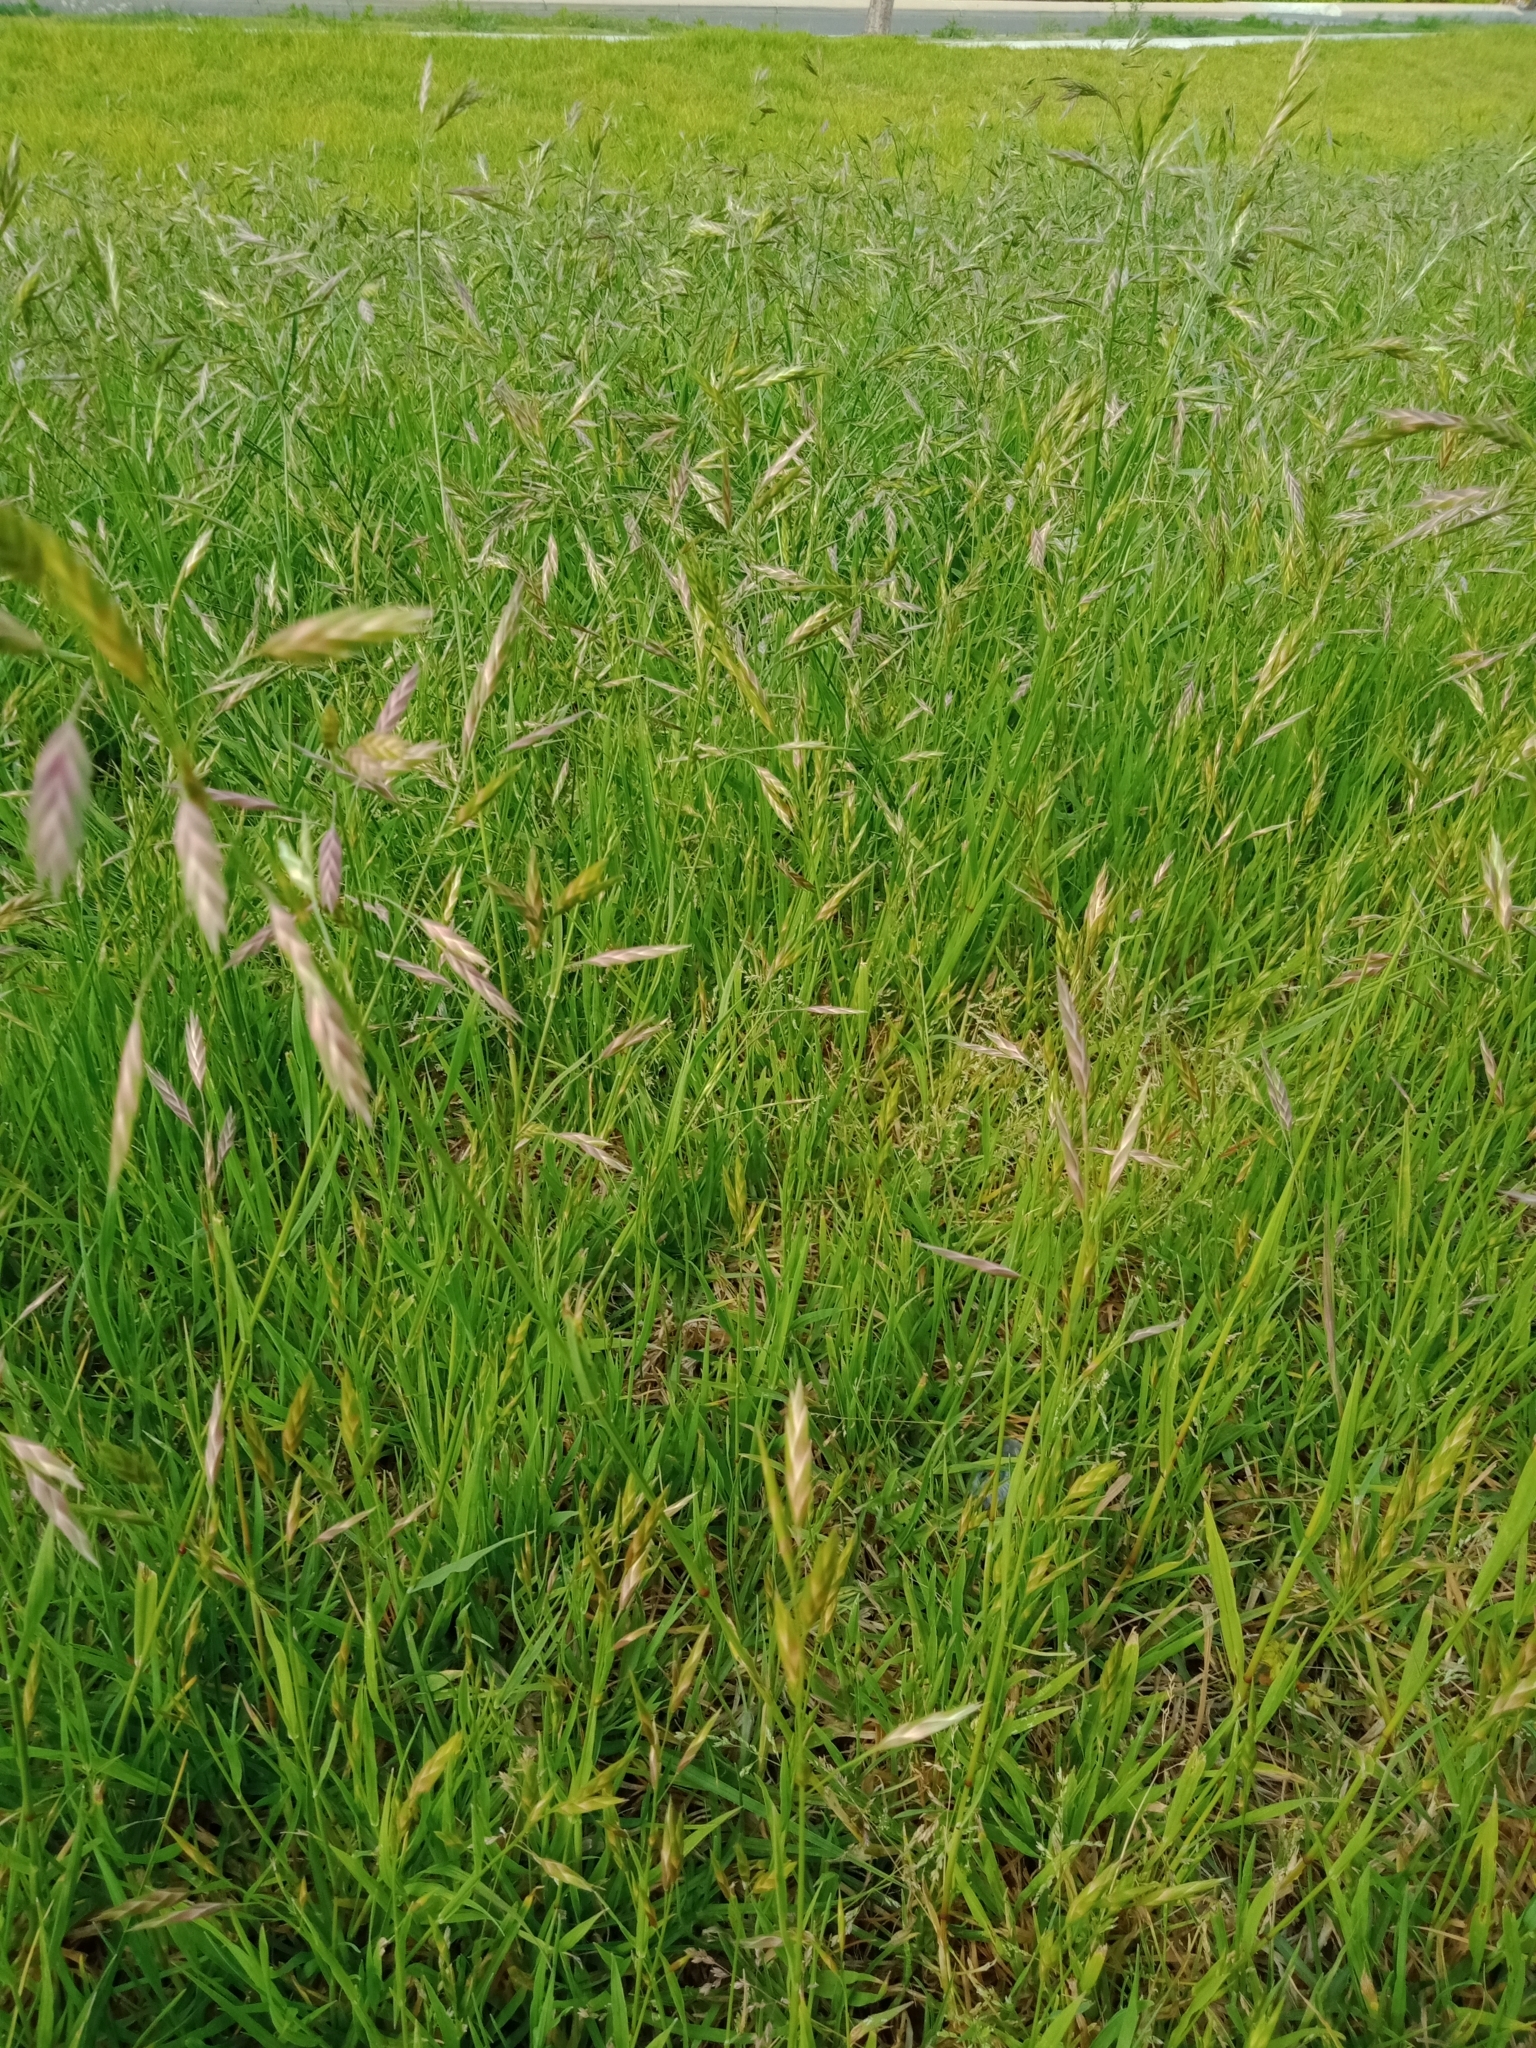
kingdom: Plantae
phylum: Tracheophyta
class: Liliopsida
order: Poales
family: Poaceae
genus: Bromus
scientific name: Bromus catharticus
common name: Rescuegrass
